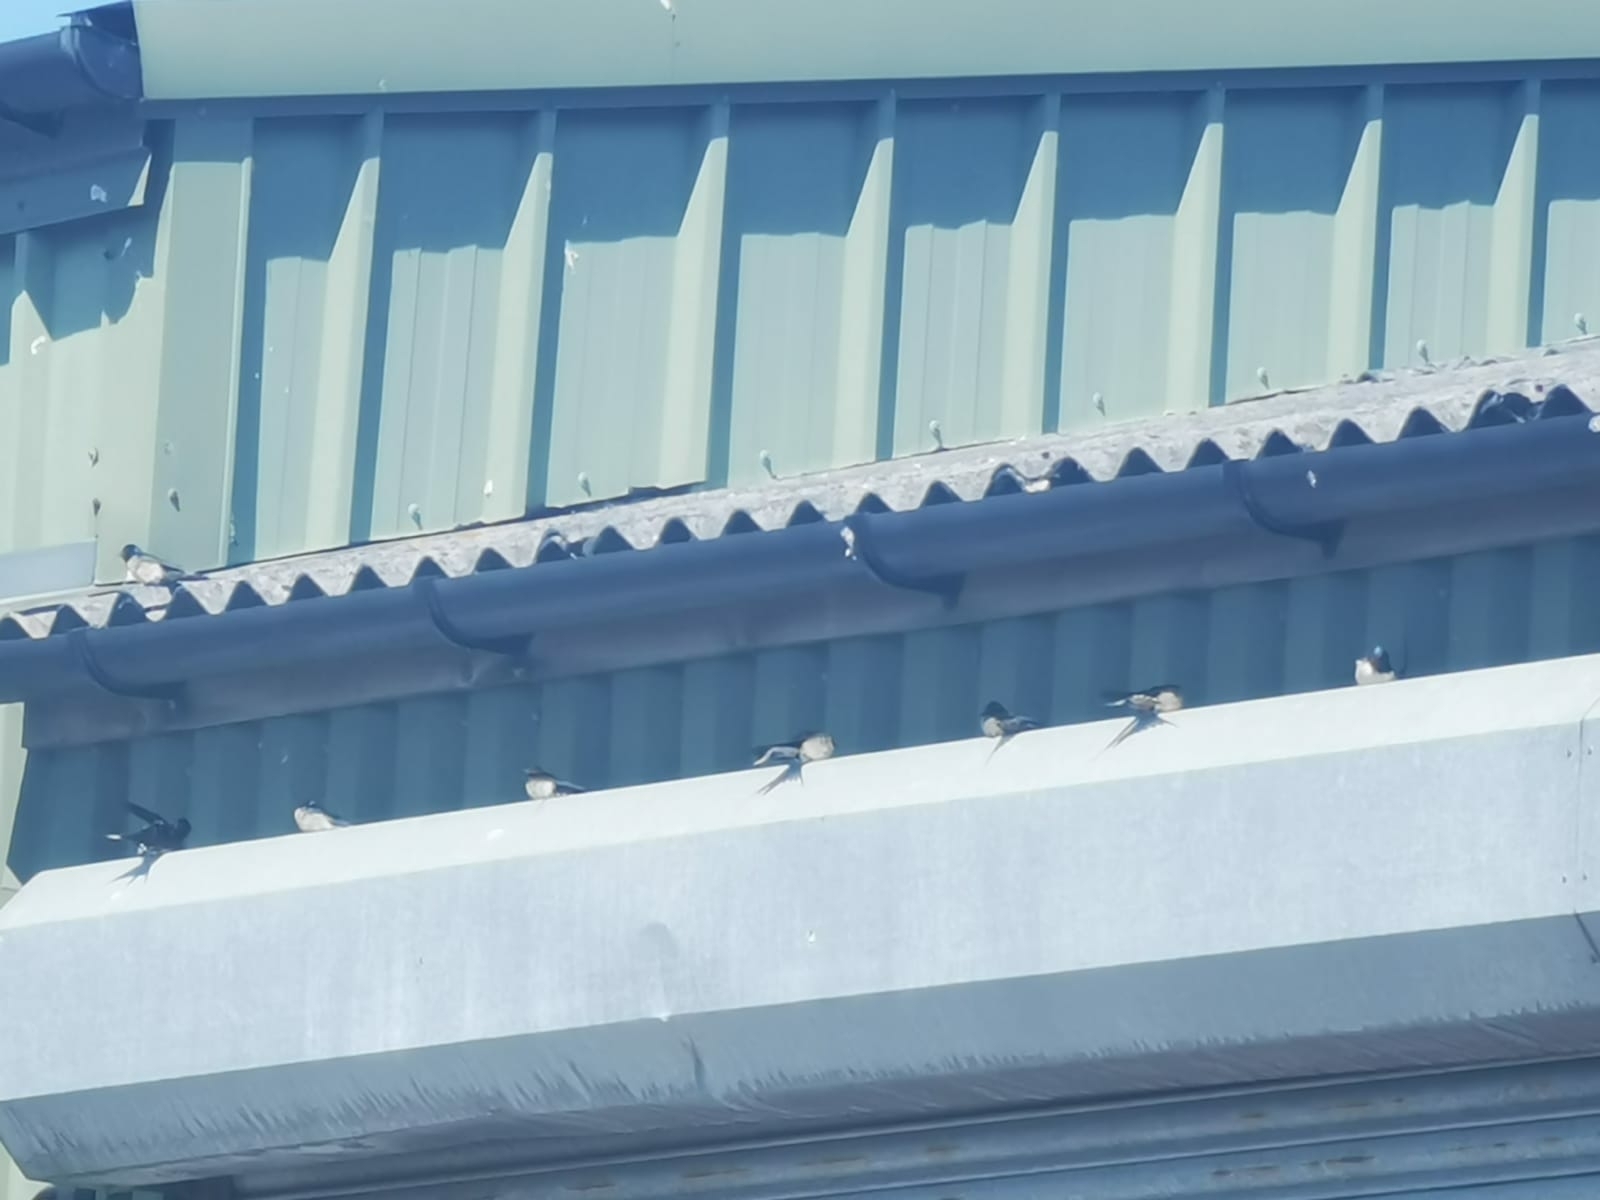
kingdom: Animalia
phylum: Chordata
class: Aves
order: Passeriformes
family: Hirundinidae
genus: Hirundo
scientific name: Hirundo rustica
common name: Barn swallow
